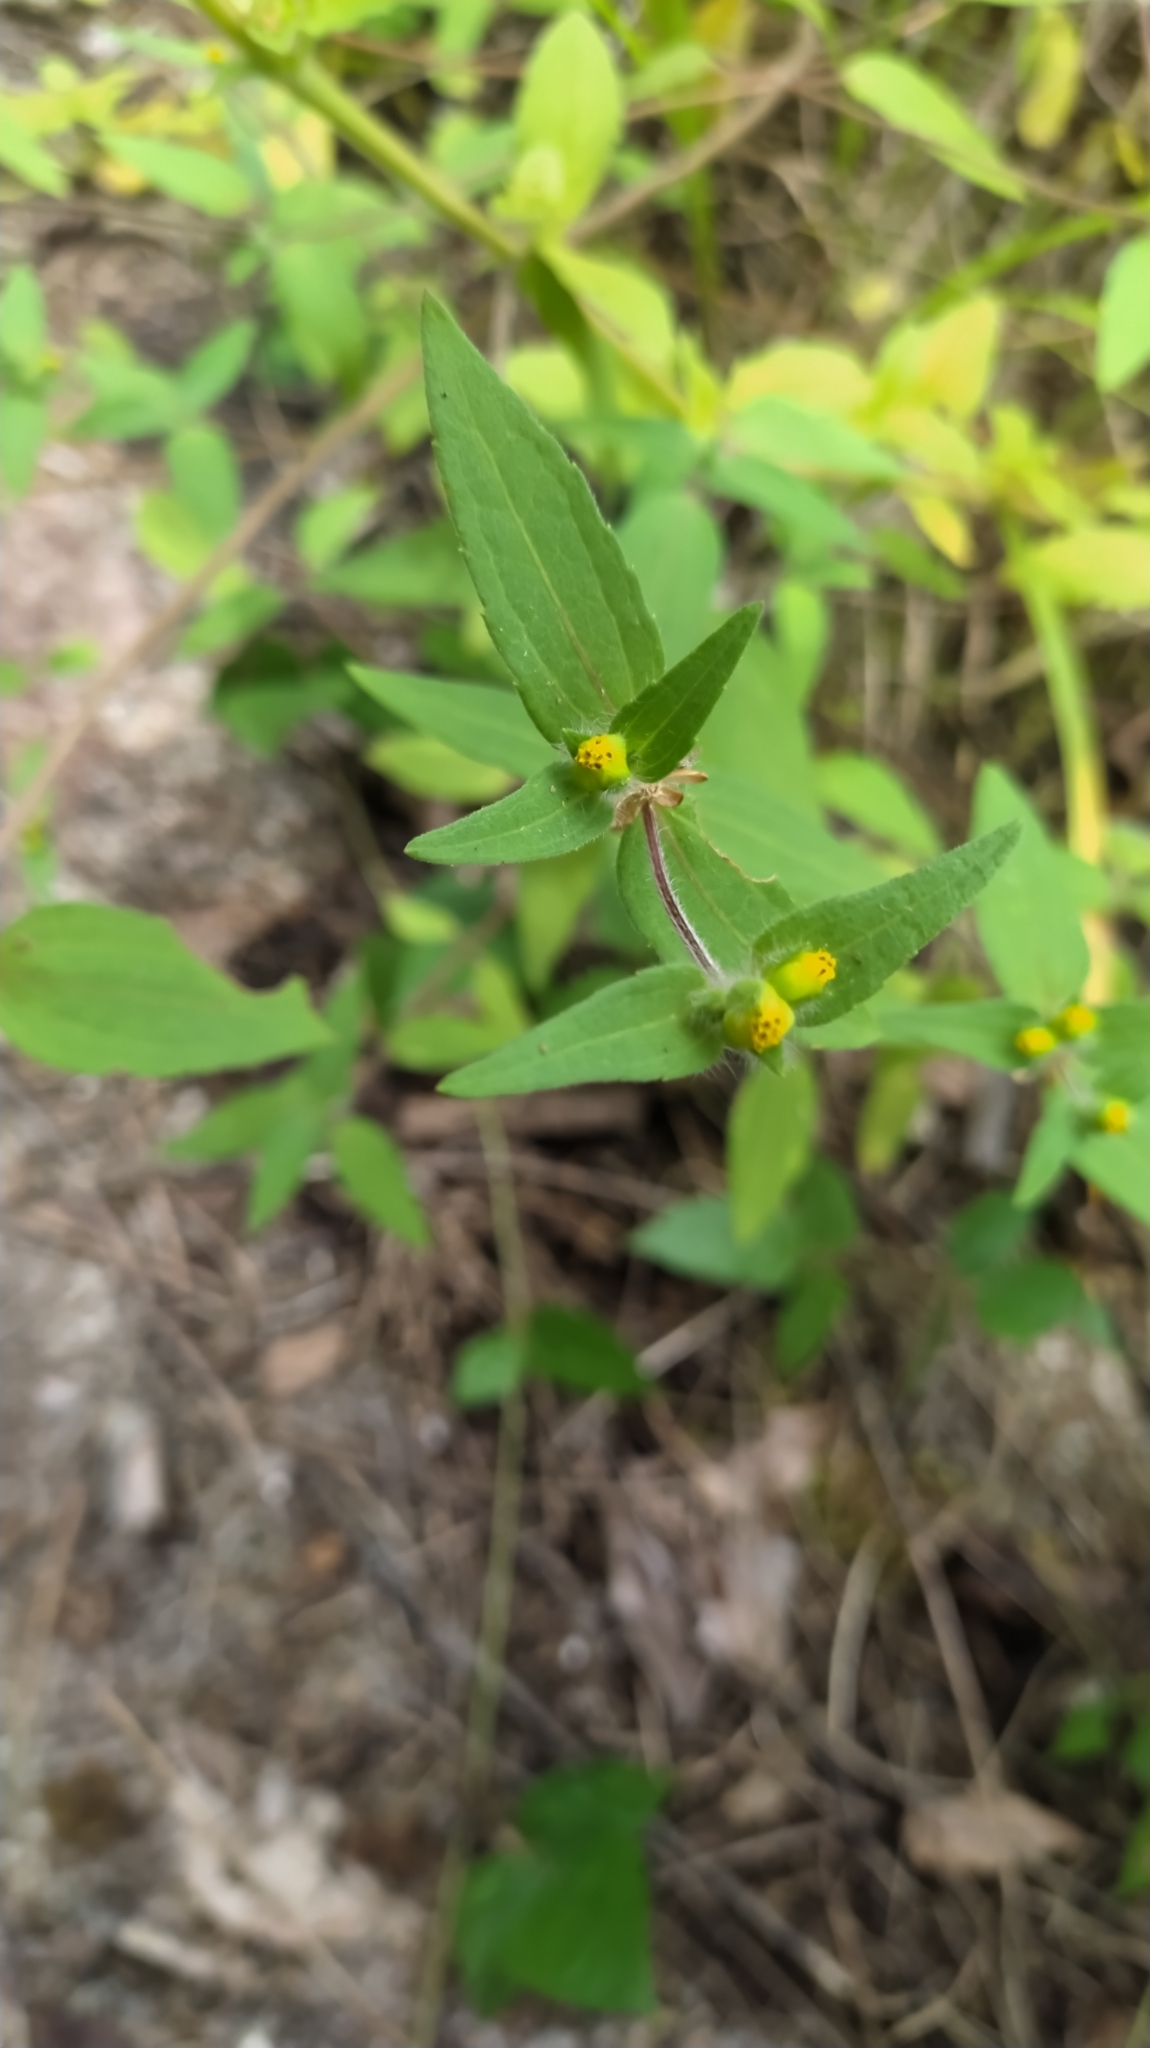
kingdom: Plantae
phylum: Tracheophyta
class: Magnoliopsida
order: Asterales
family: Asteraceae
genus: Unxia
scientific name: Unxia camphorata
